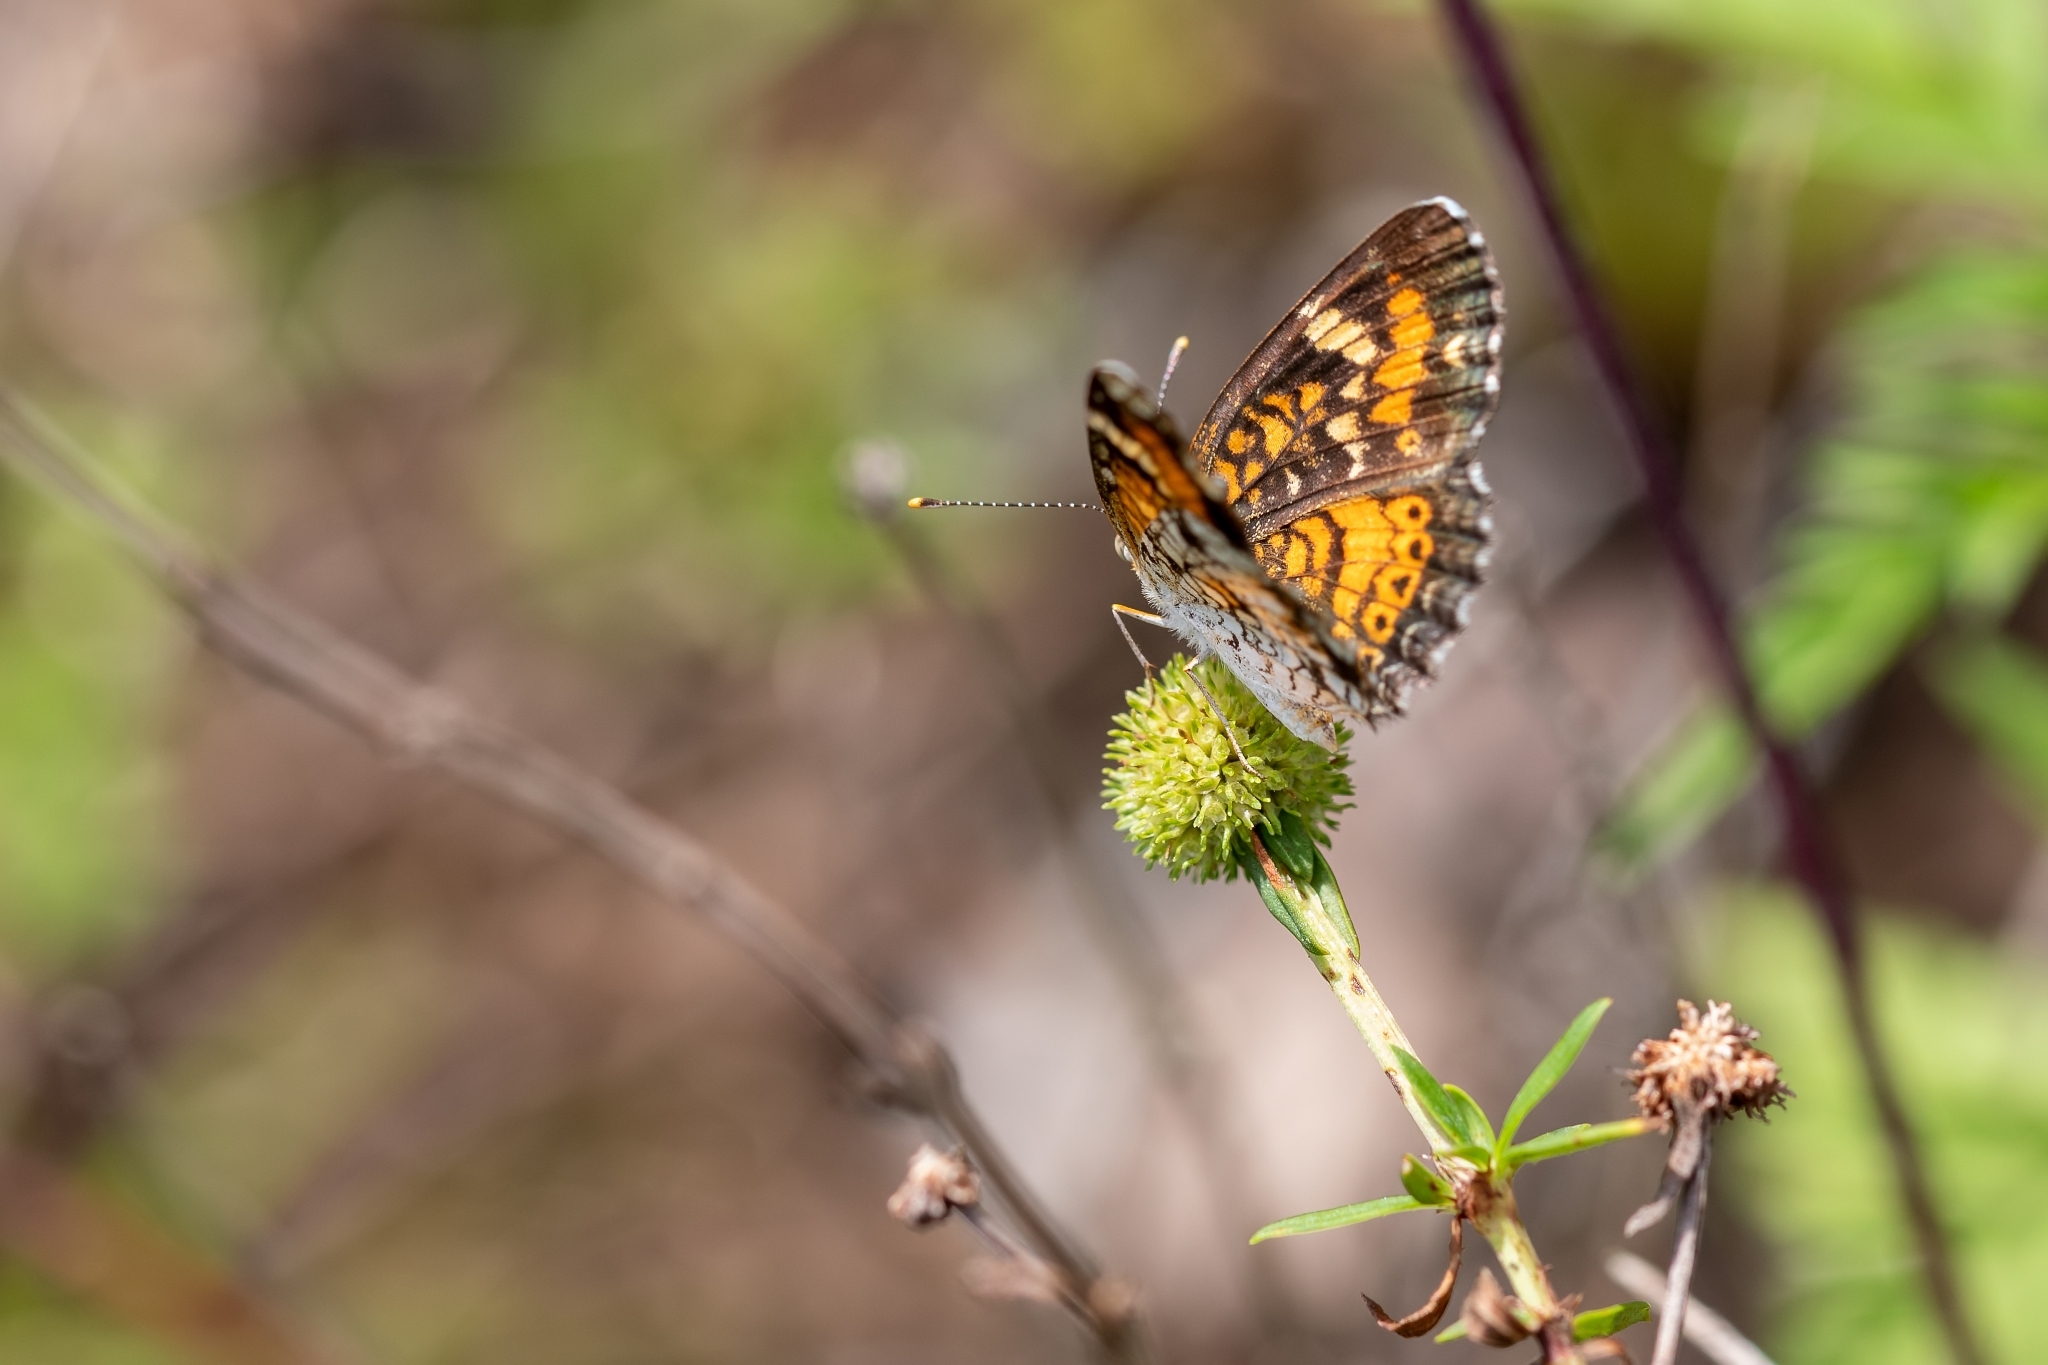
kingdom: Animalia
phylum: Arthropoda
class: Insecta
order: Lepidoptera
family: Nymphalidae
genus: Phyciodes
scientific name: Phyciodes phaon
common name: Phaon crescent
